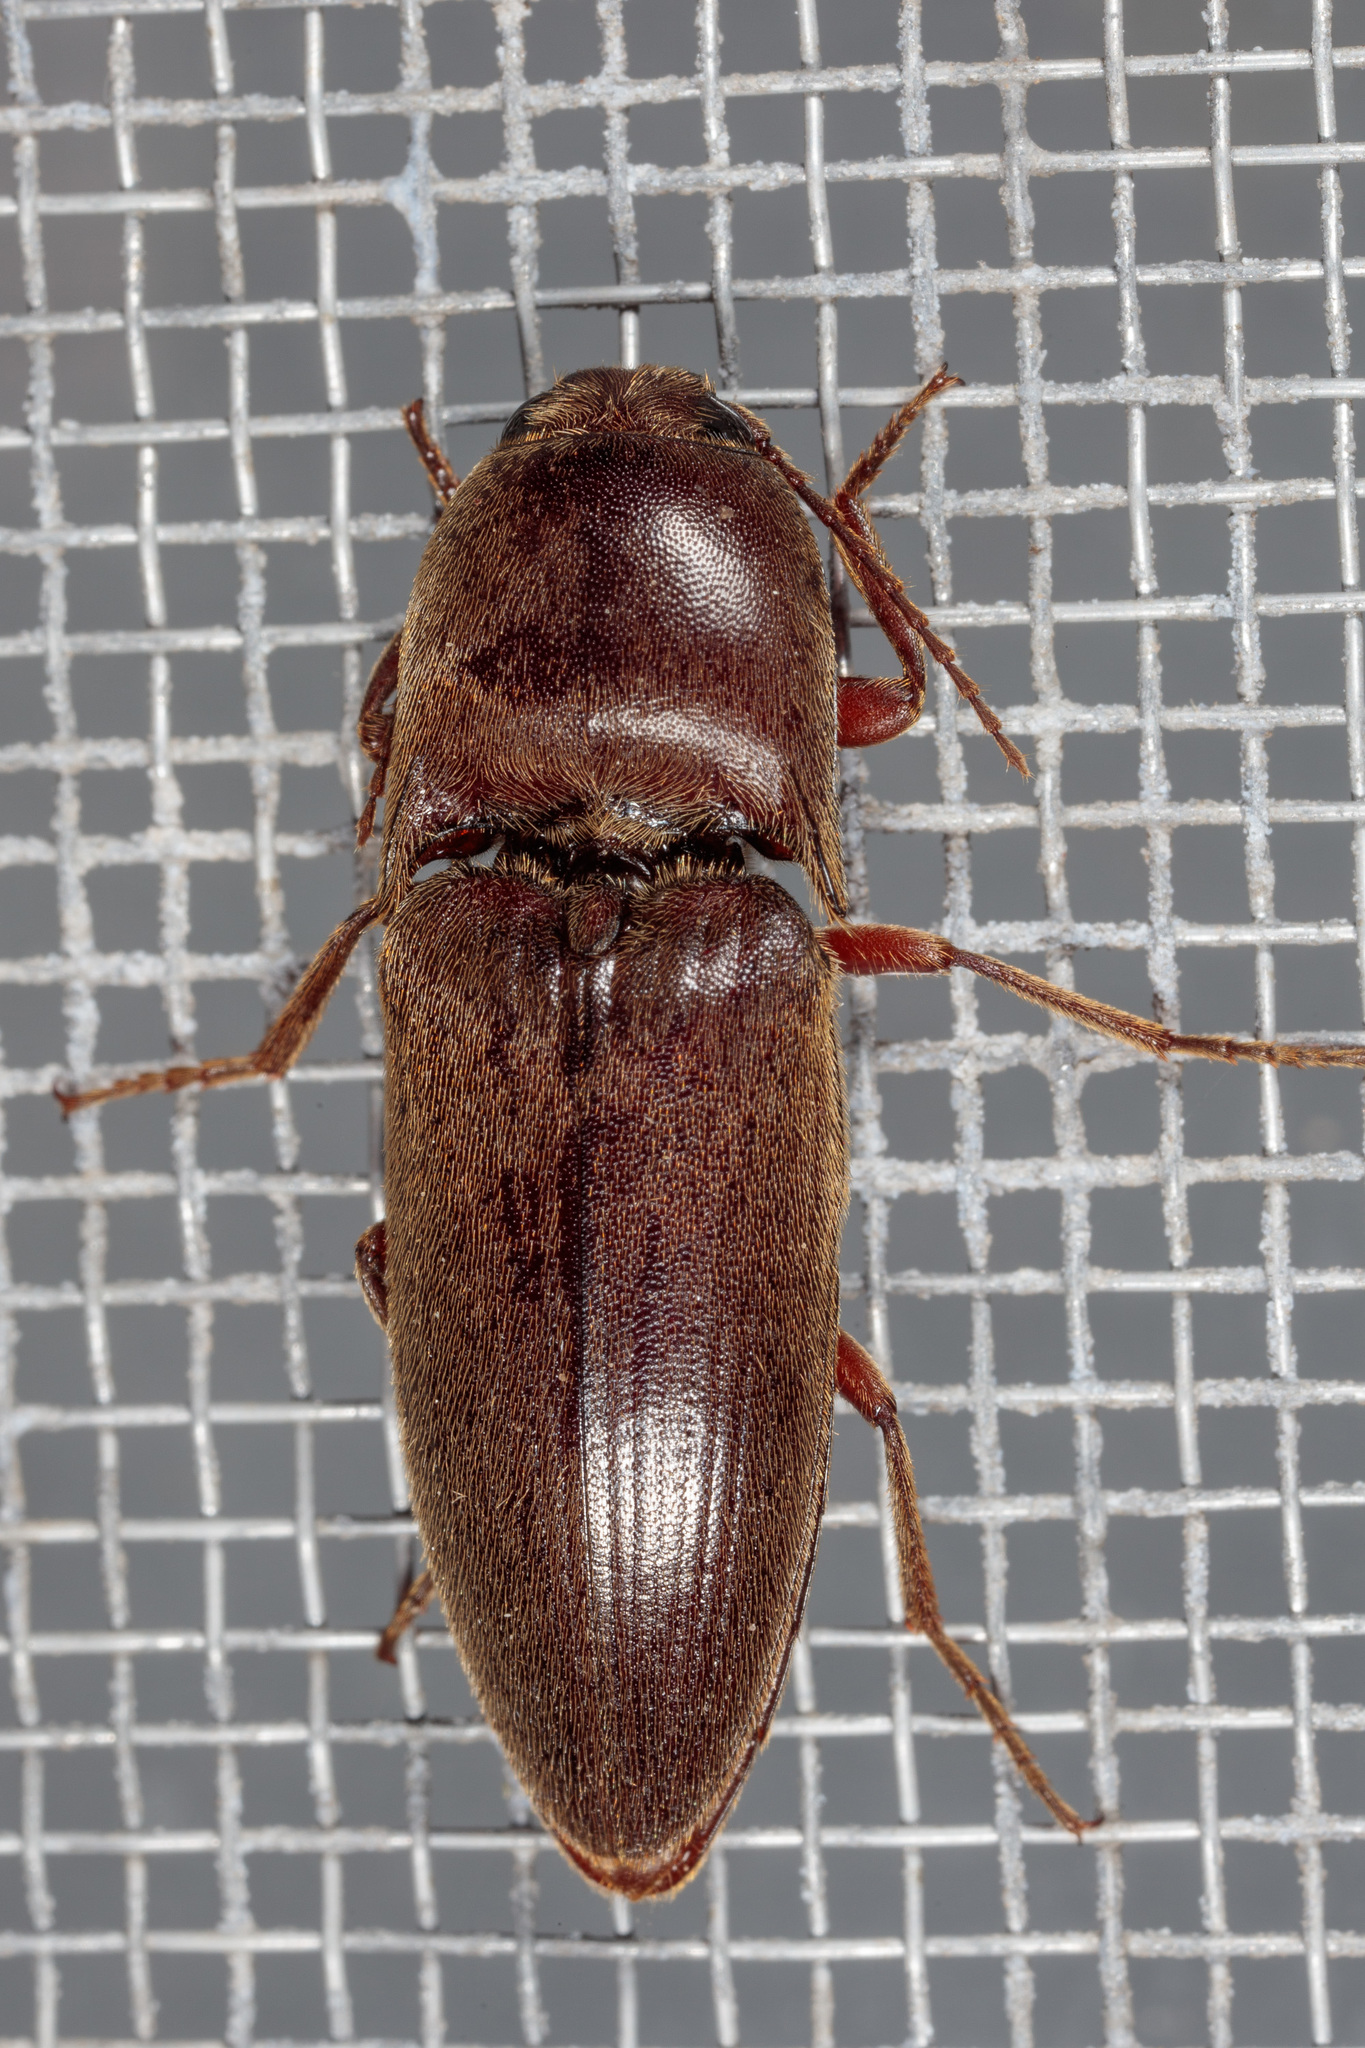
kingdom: Animalia
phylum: Arthropoda
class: Insecta
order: Coleoptera
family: Elateridae
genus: Diplostethus
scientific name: Diplostethus
